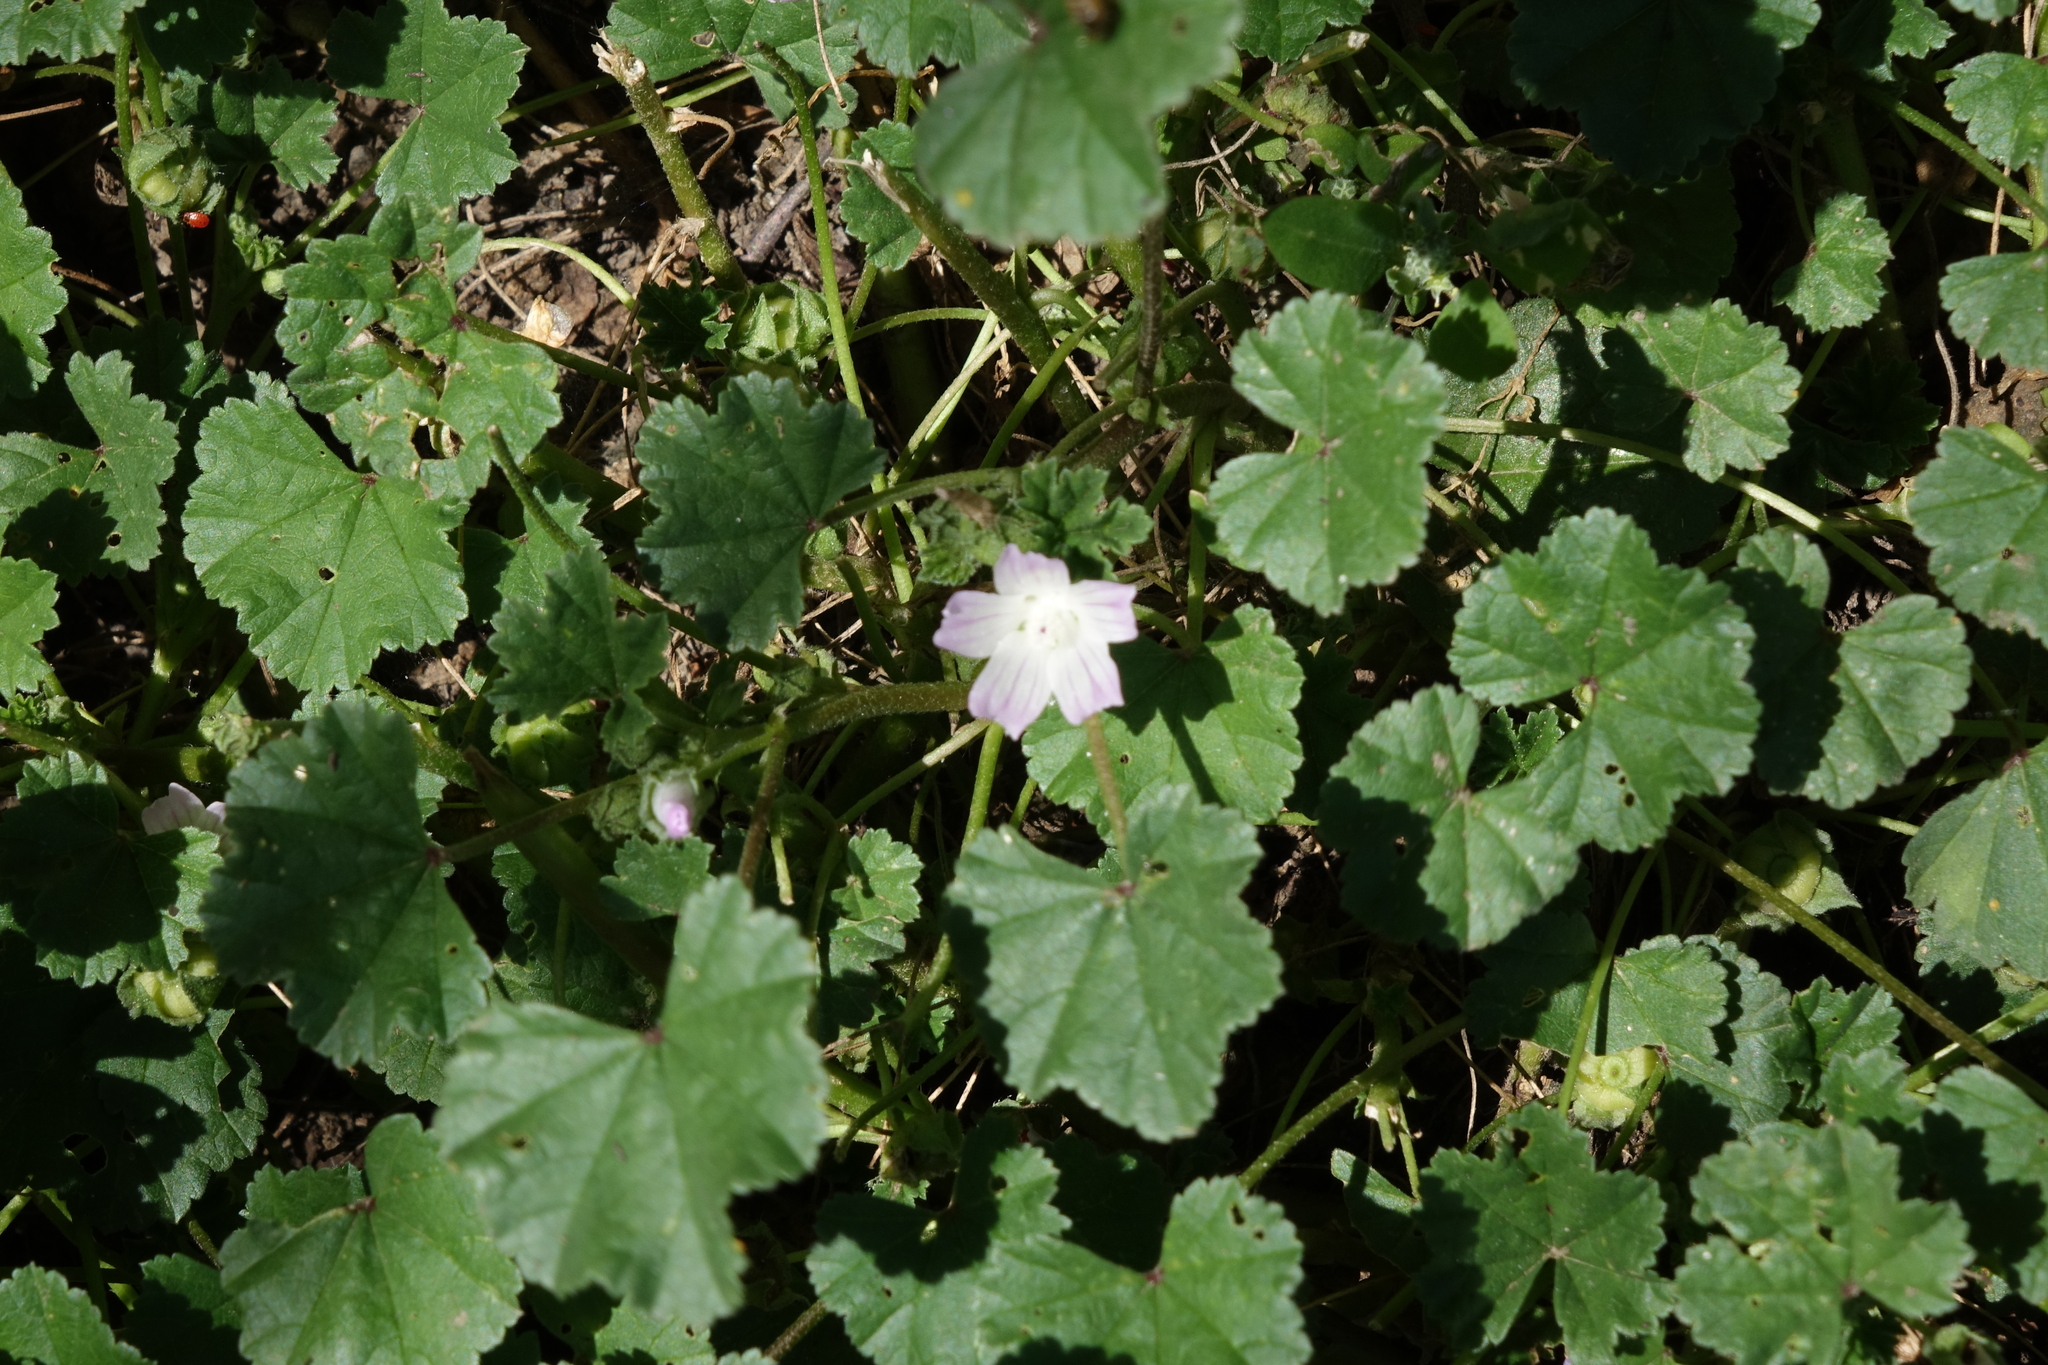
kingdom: Plantae
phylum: Tracheophyta
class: Magnoliopsida
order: Malvales
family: Malvaceae
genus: Malva
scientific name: Malva neglecta
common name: Common mallow
